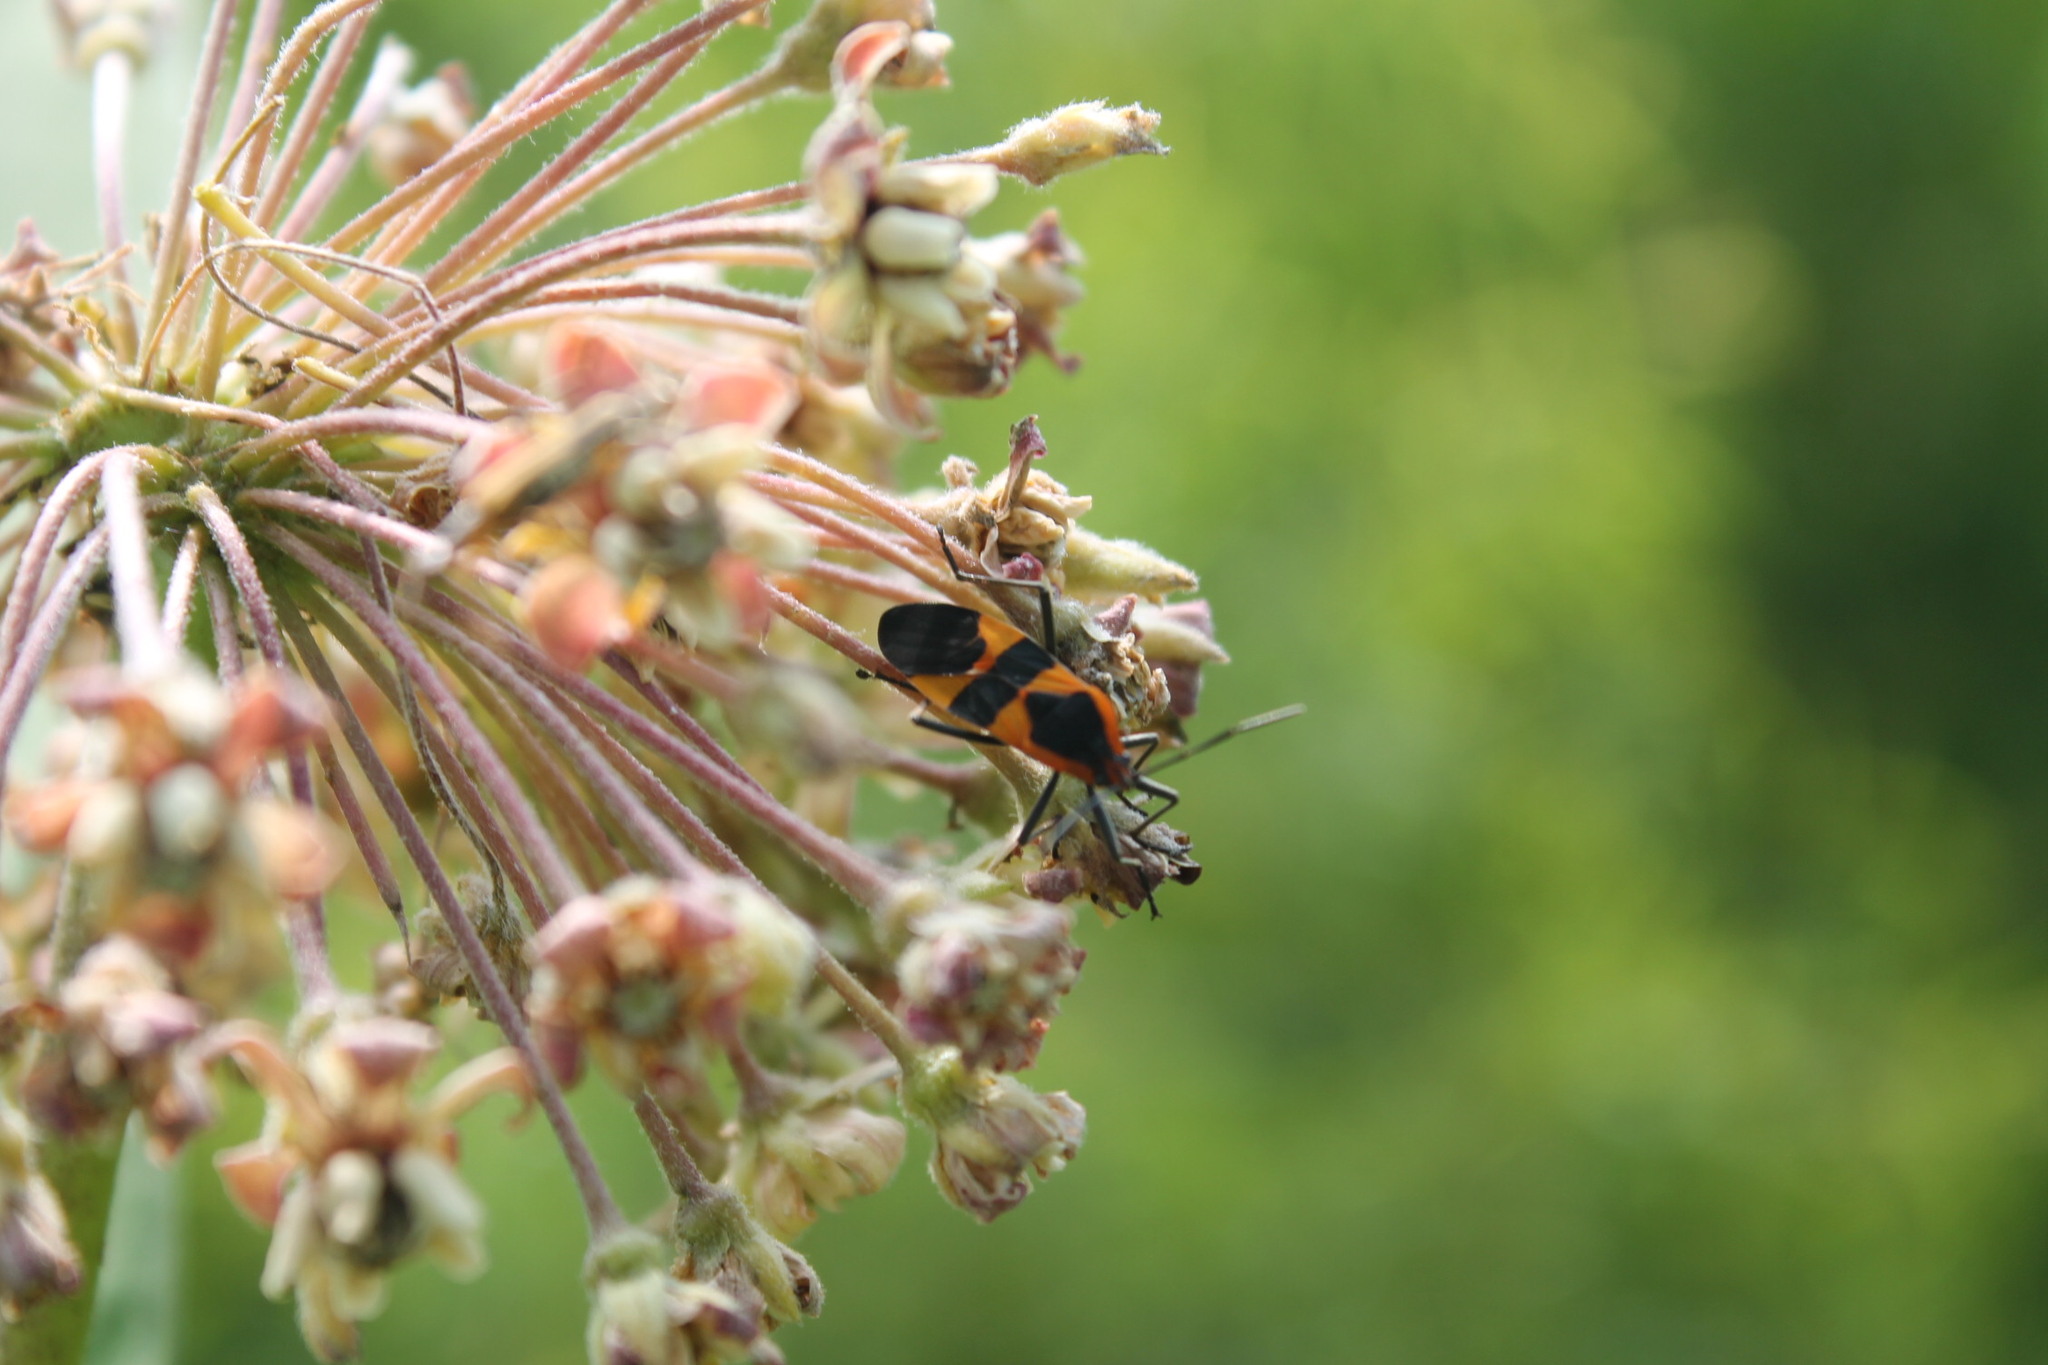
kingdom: Animalia
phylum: Arthropoda
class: Insecta
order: Hemiptera
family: Lygaeidae
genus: Oncopeltus
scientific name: Oncopeltus fasciatus
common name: Large milkweed bug
